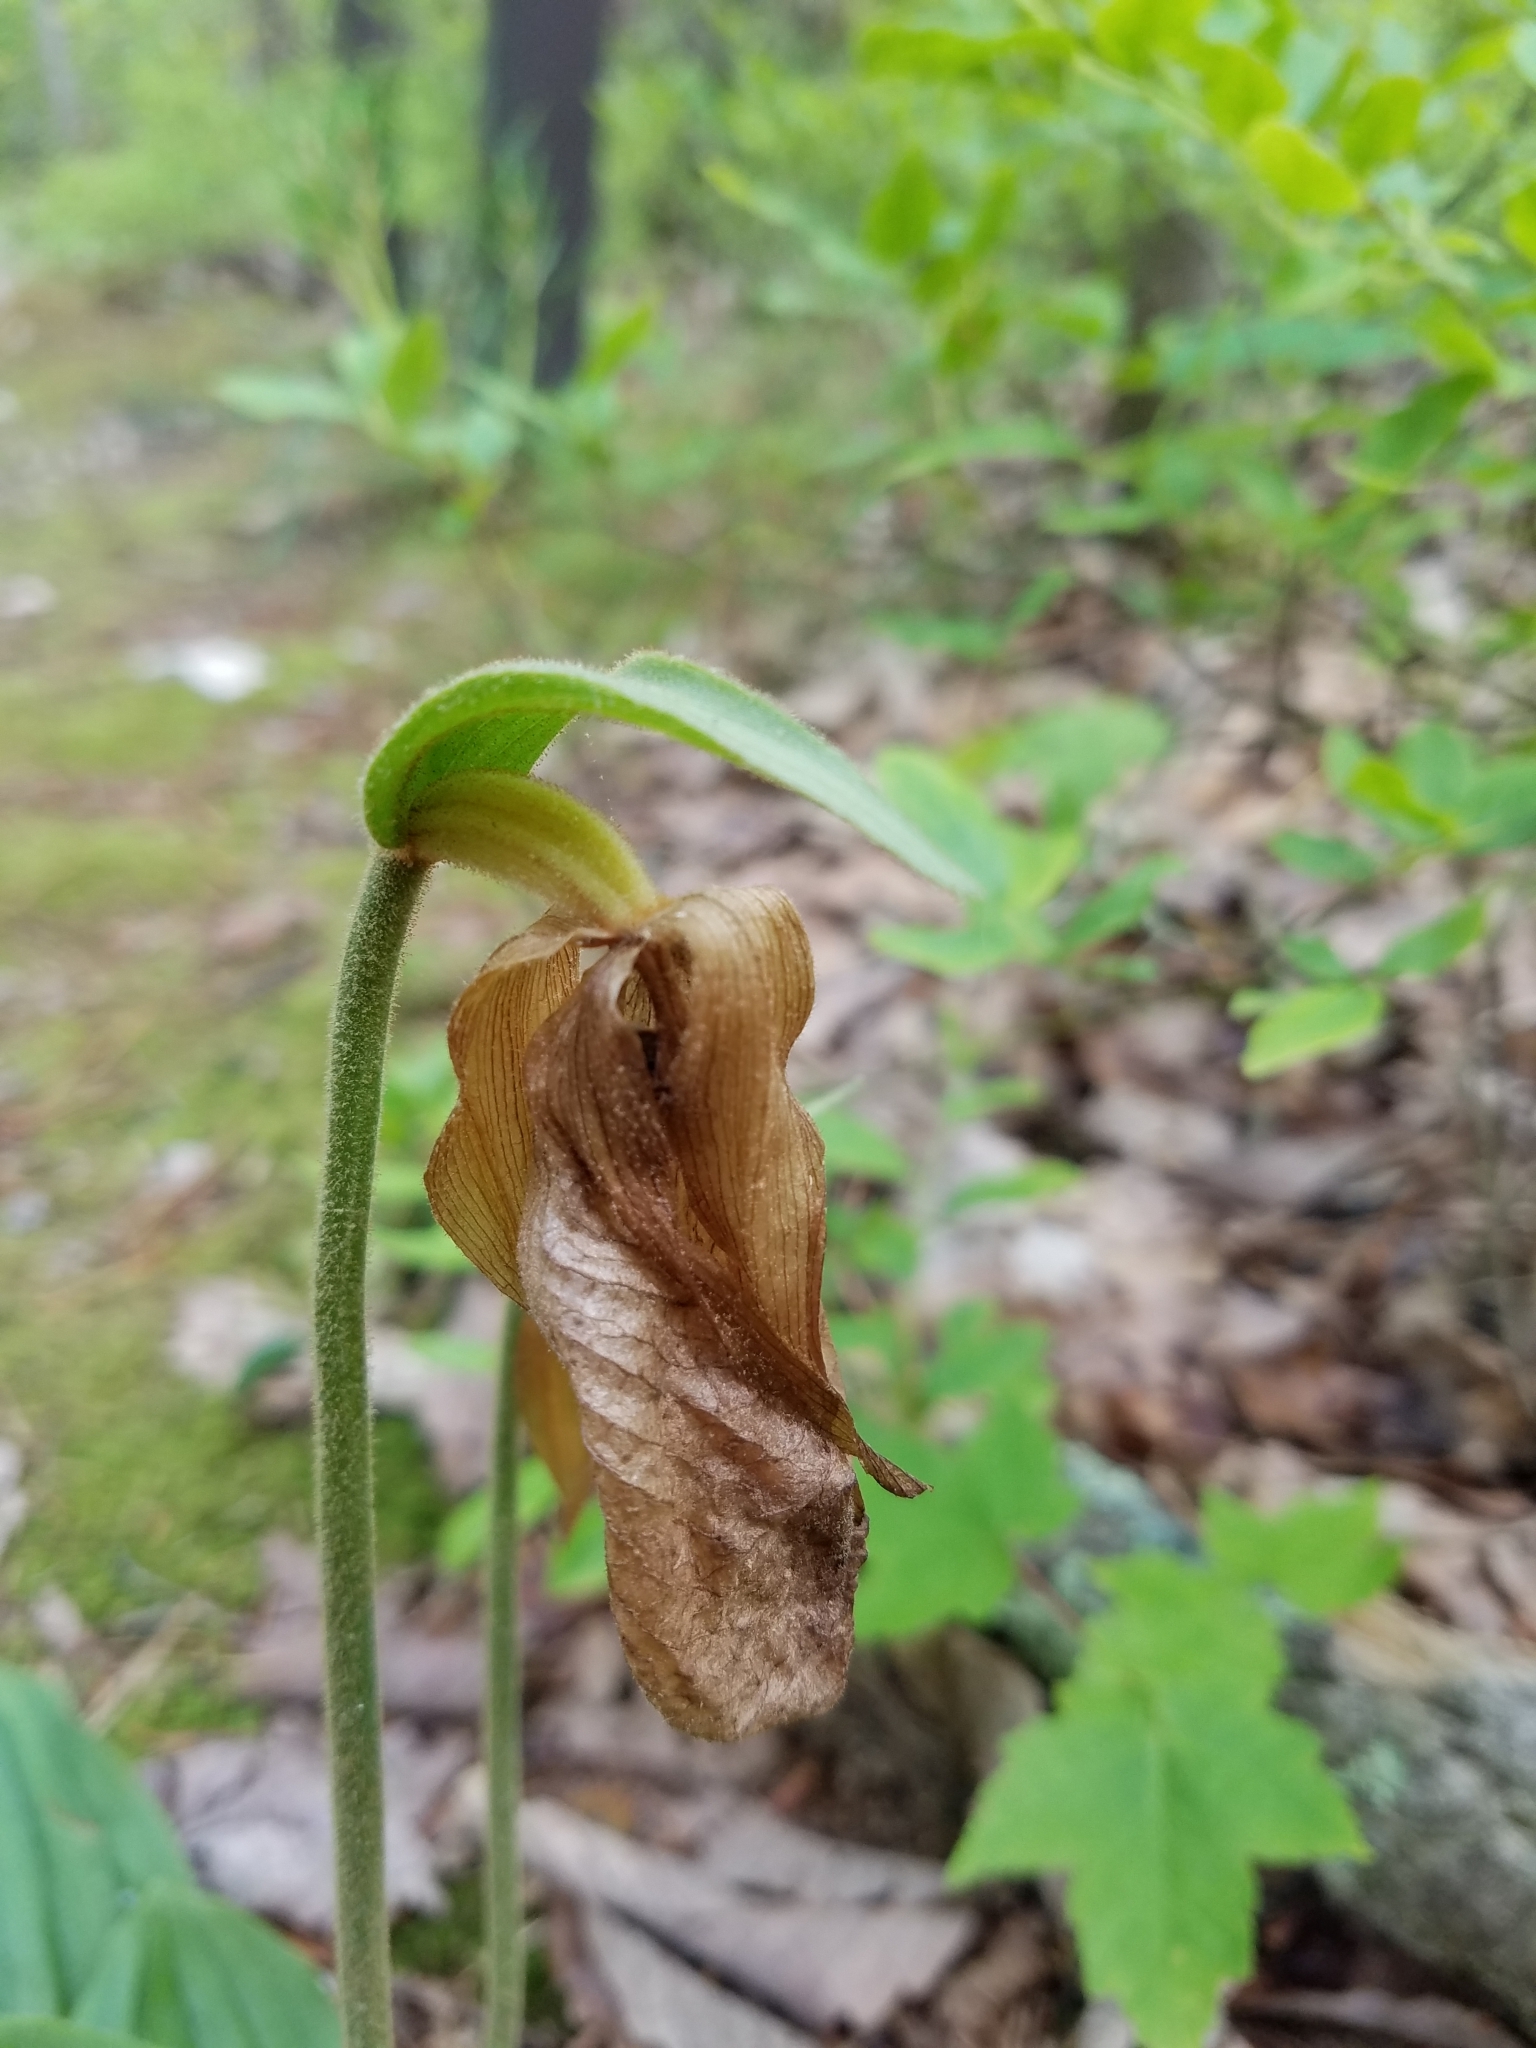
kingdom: Plantae
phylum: Tracheophyta
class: Liliopsida
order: Asparagales
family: Orchidaceae
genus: Cypripedium
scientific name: Cypripedium acaule
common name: Pink lady's-slipper
